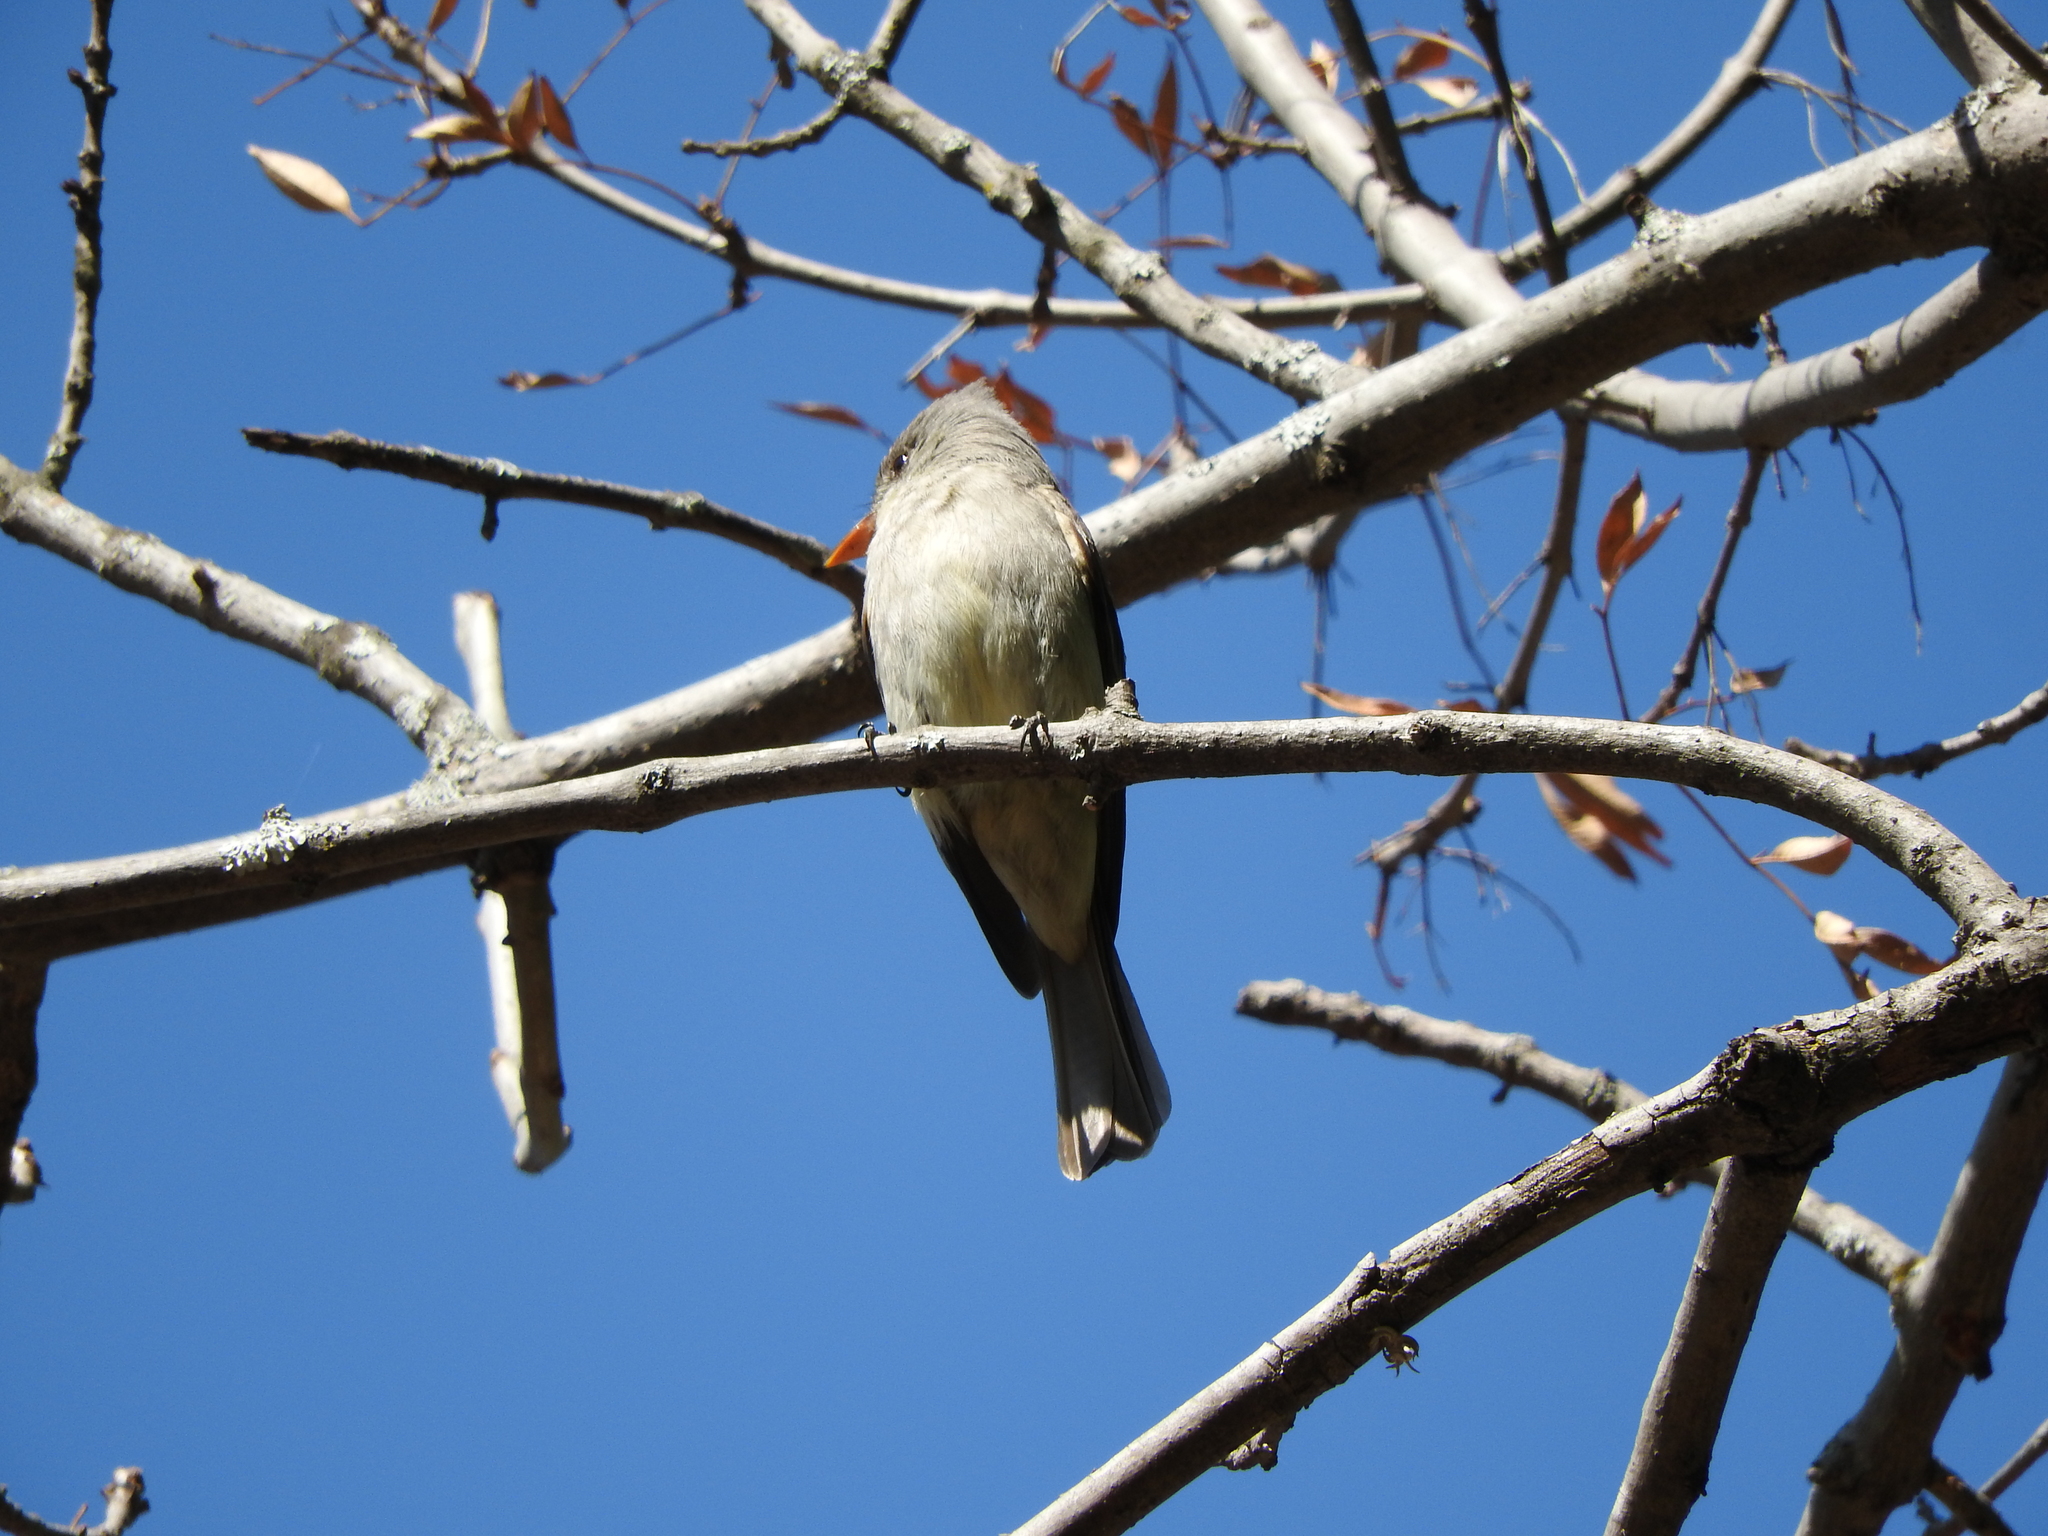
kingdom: Animalia
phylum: Chordata
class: Aves
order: Passeriformes
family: Tyrannidae
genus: Contopus
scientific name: Contopus pertinax
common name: Greater pewee
